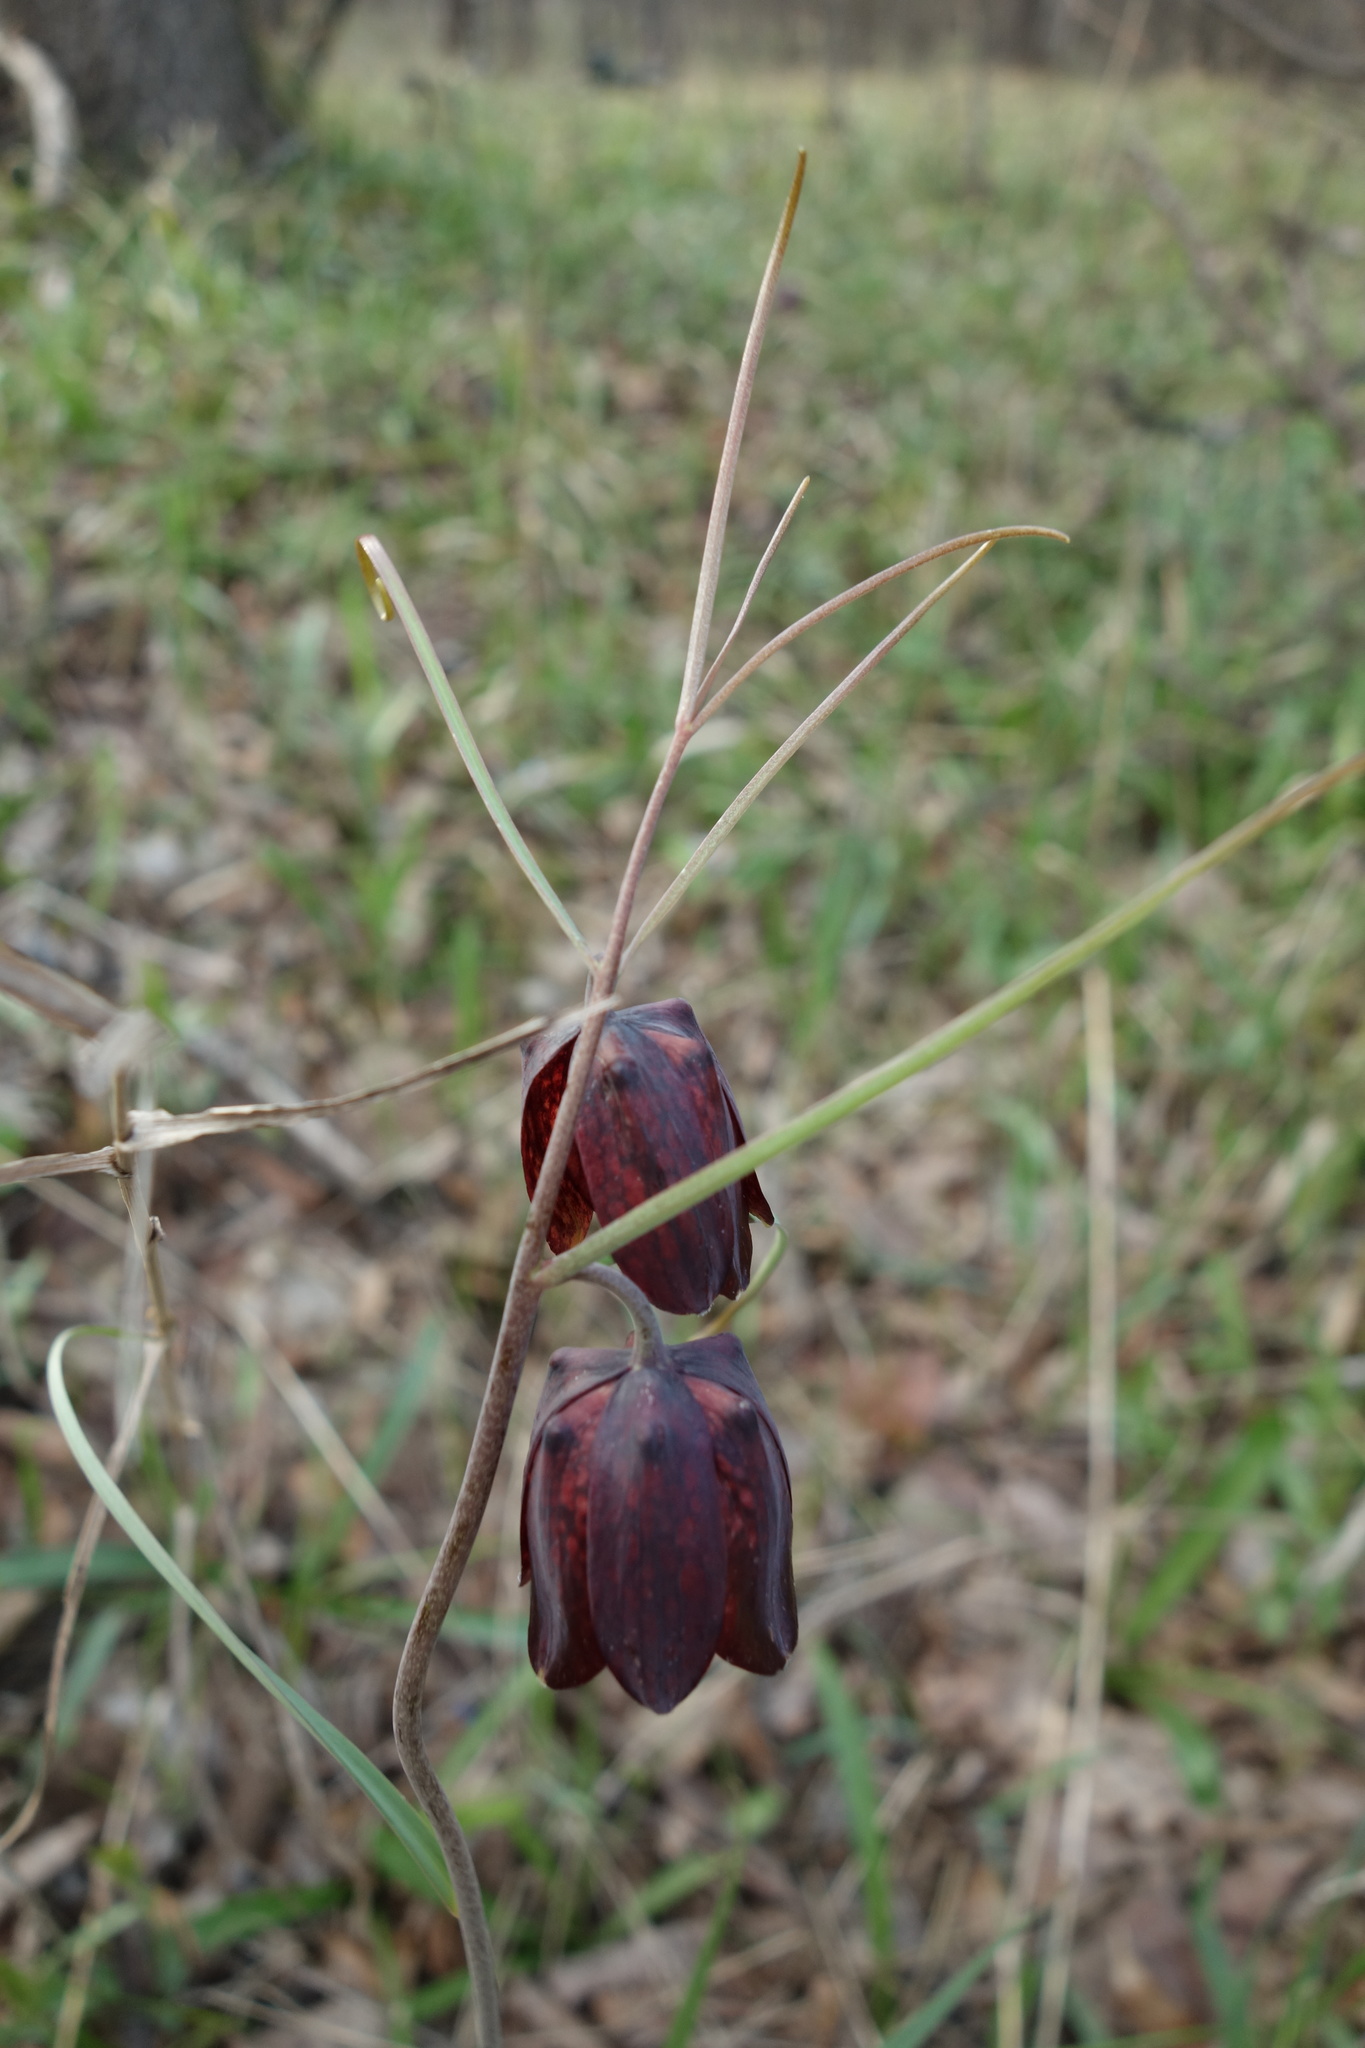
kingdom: Plantae
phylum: Tracheophyta
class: Liliopsida
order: Liliales
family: Liliaceae
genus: Fritillaria
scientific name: Fritillaria ruthenica
